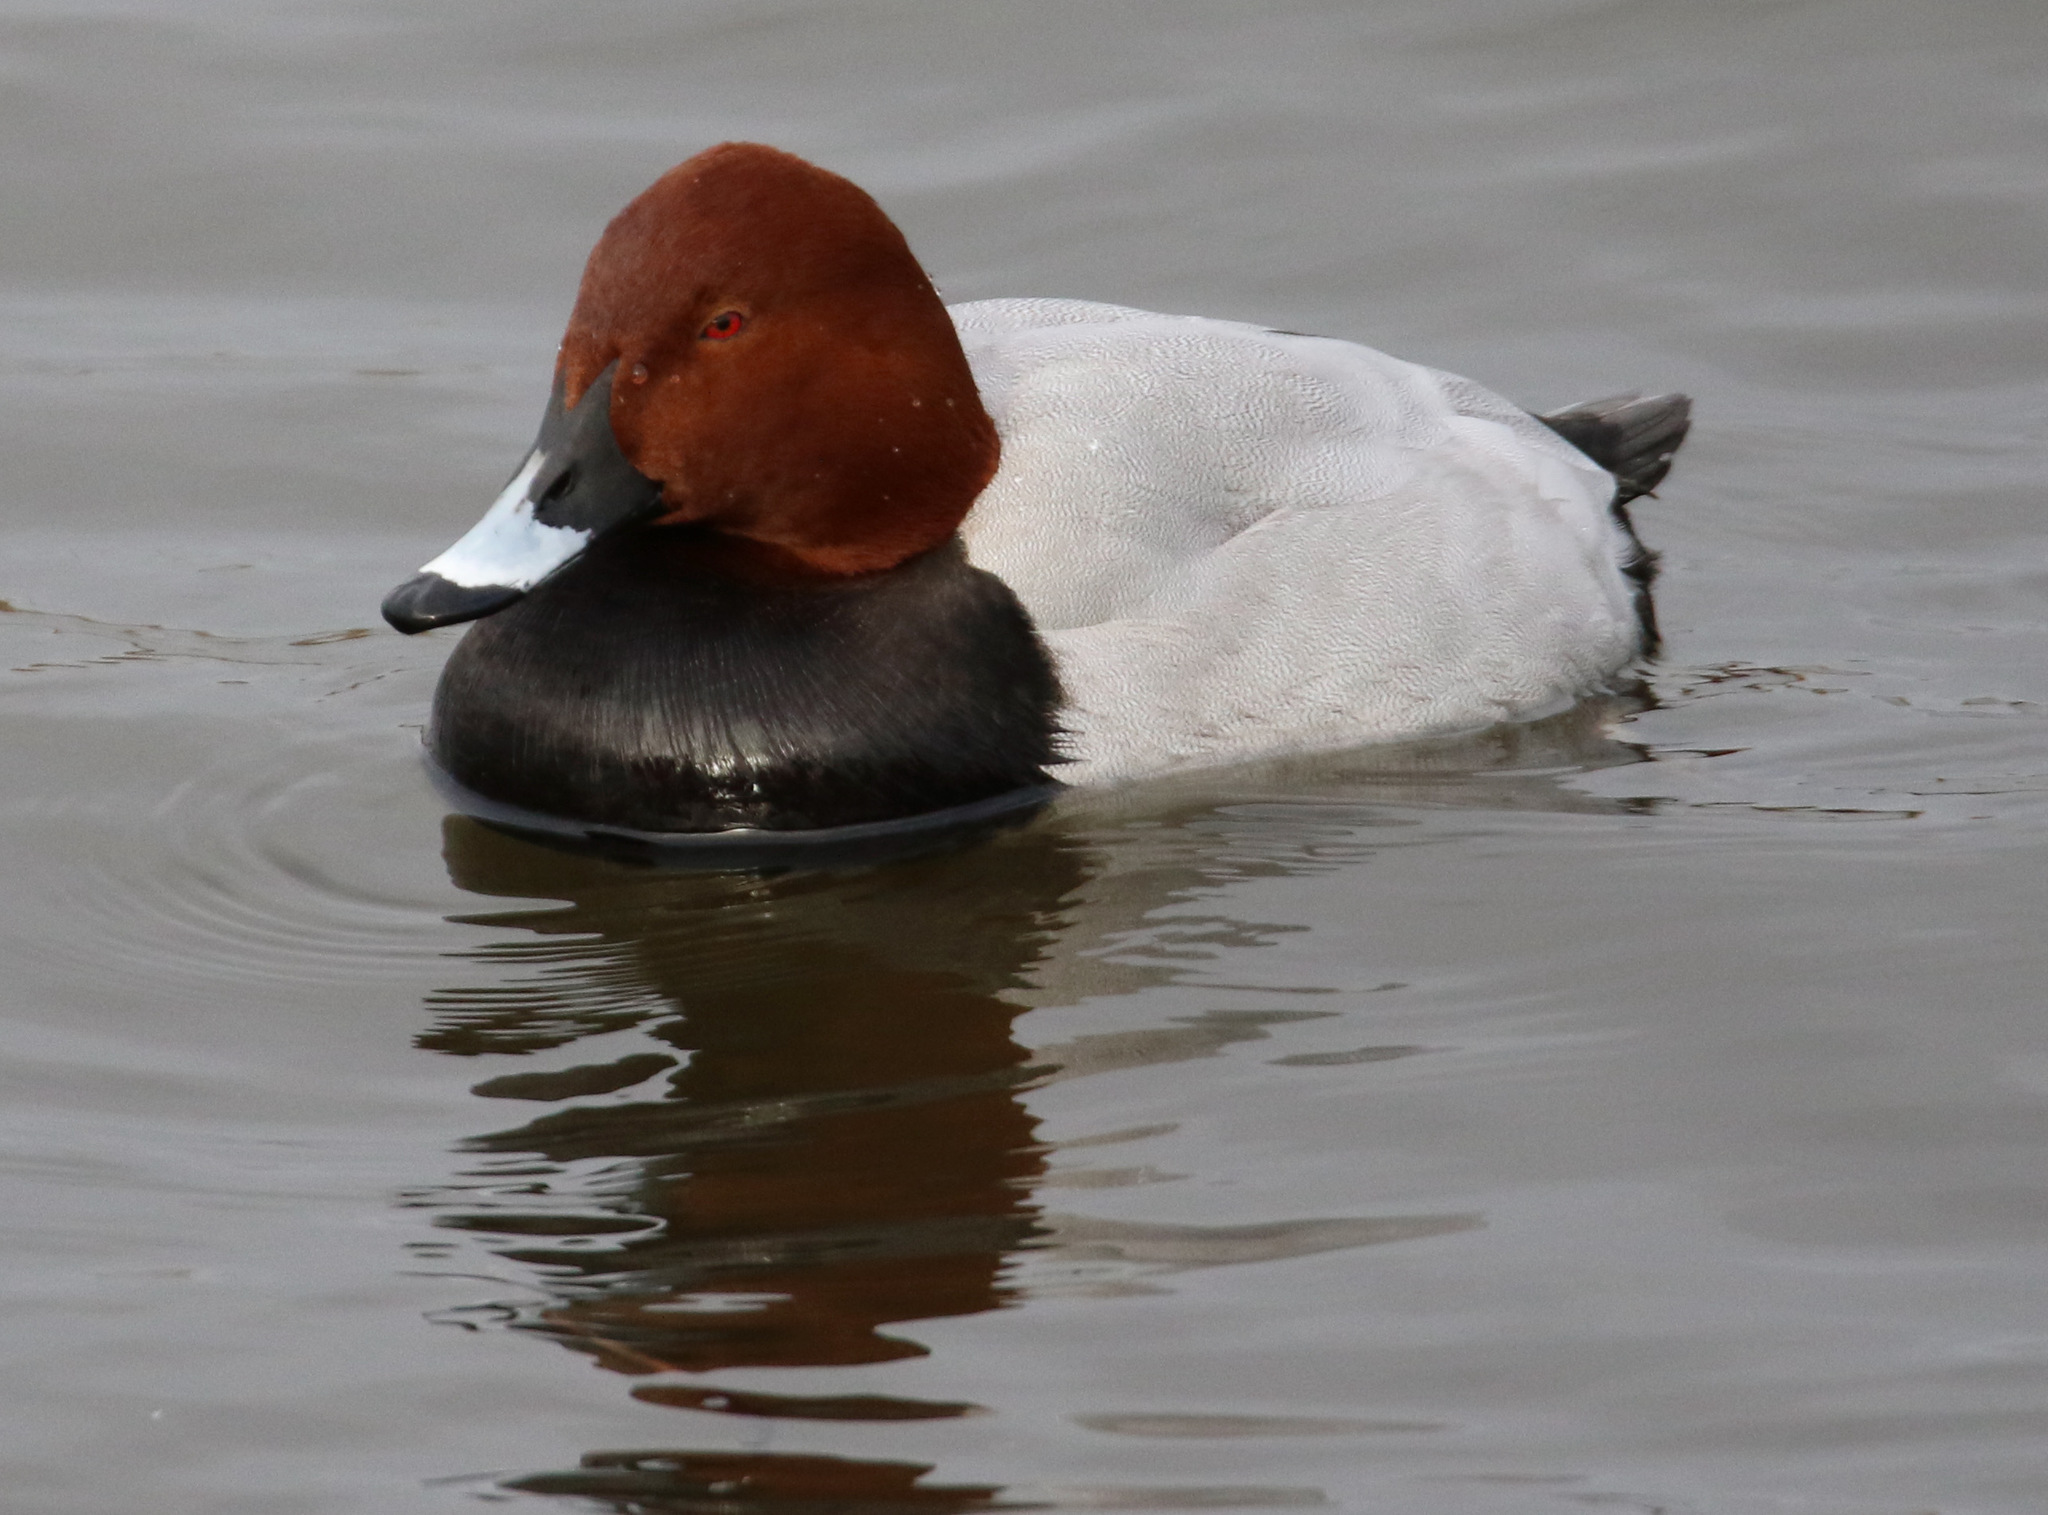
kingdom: Animalia
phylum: Chordata
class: Aves
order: Anseriformes
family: Anatidae
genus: Aythya
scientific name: Aythya ferina
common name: Common pochard
